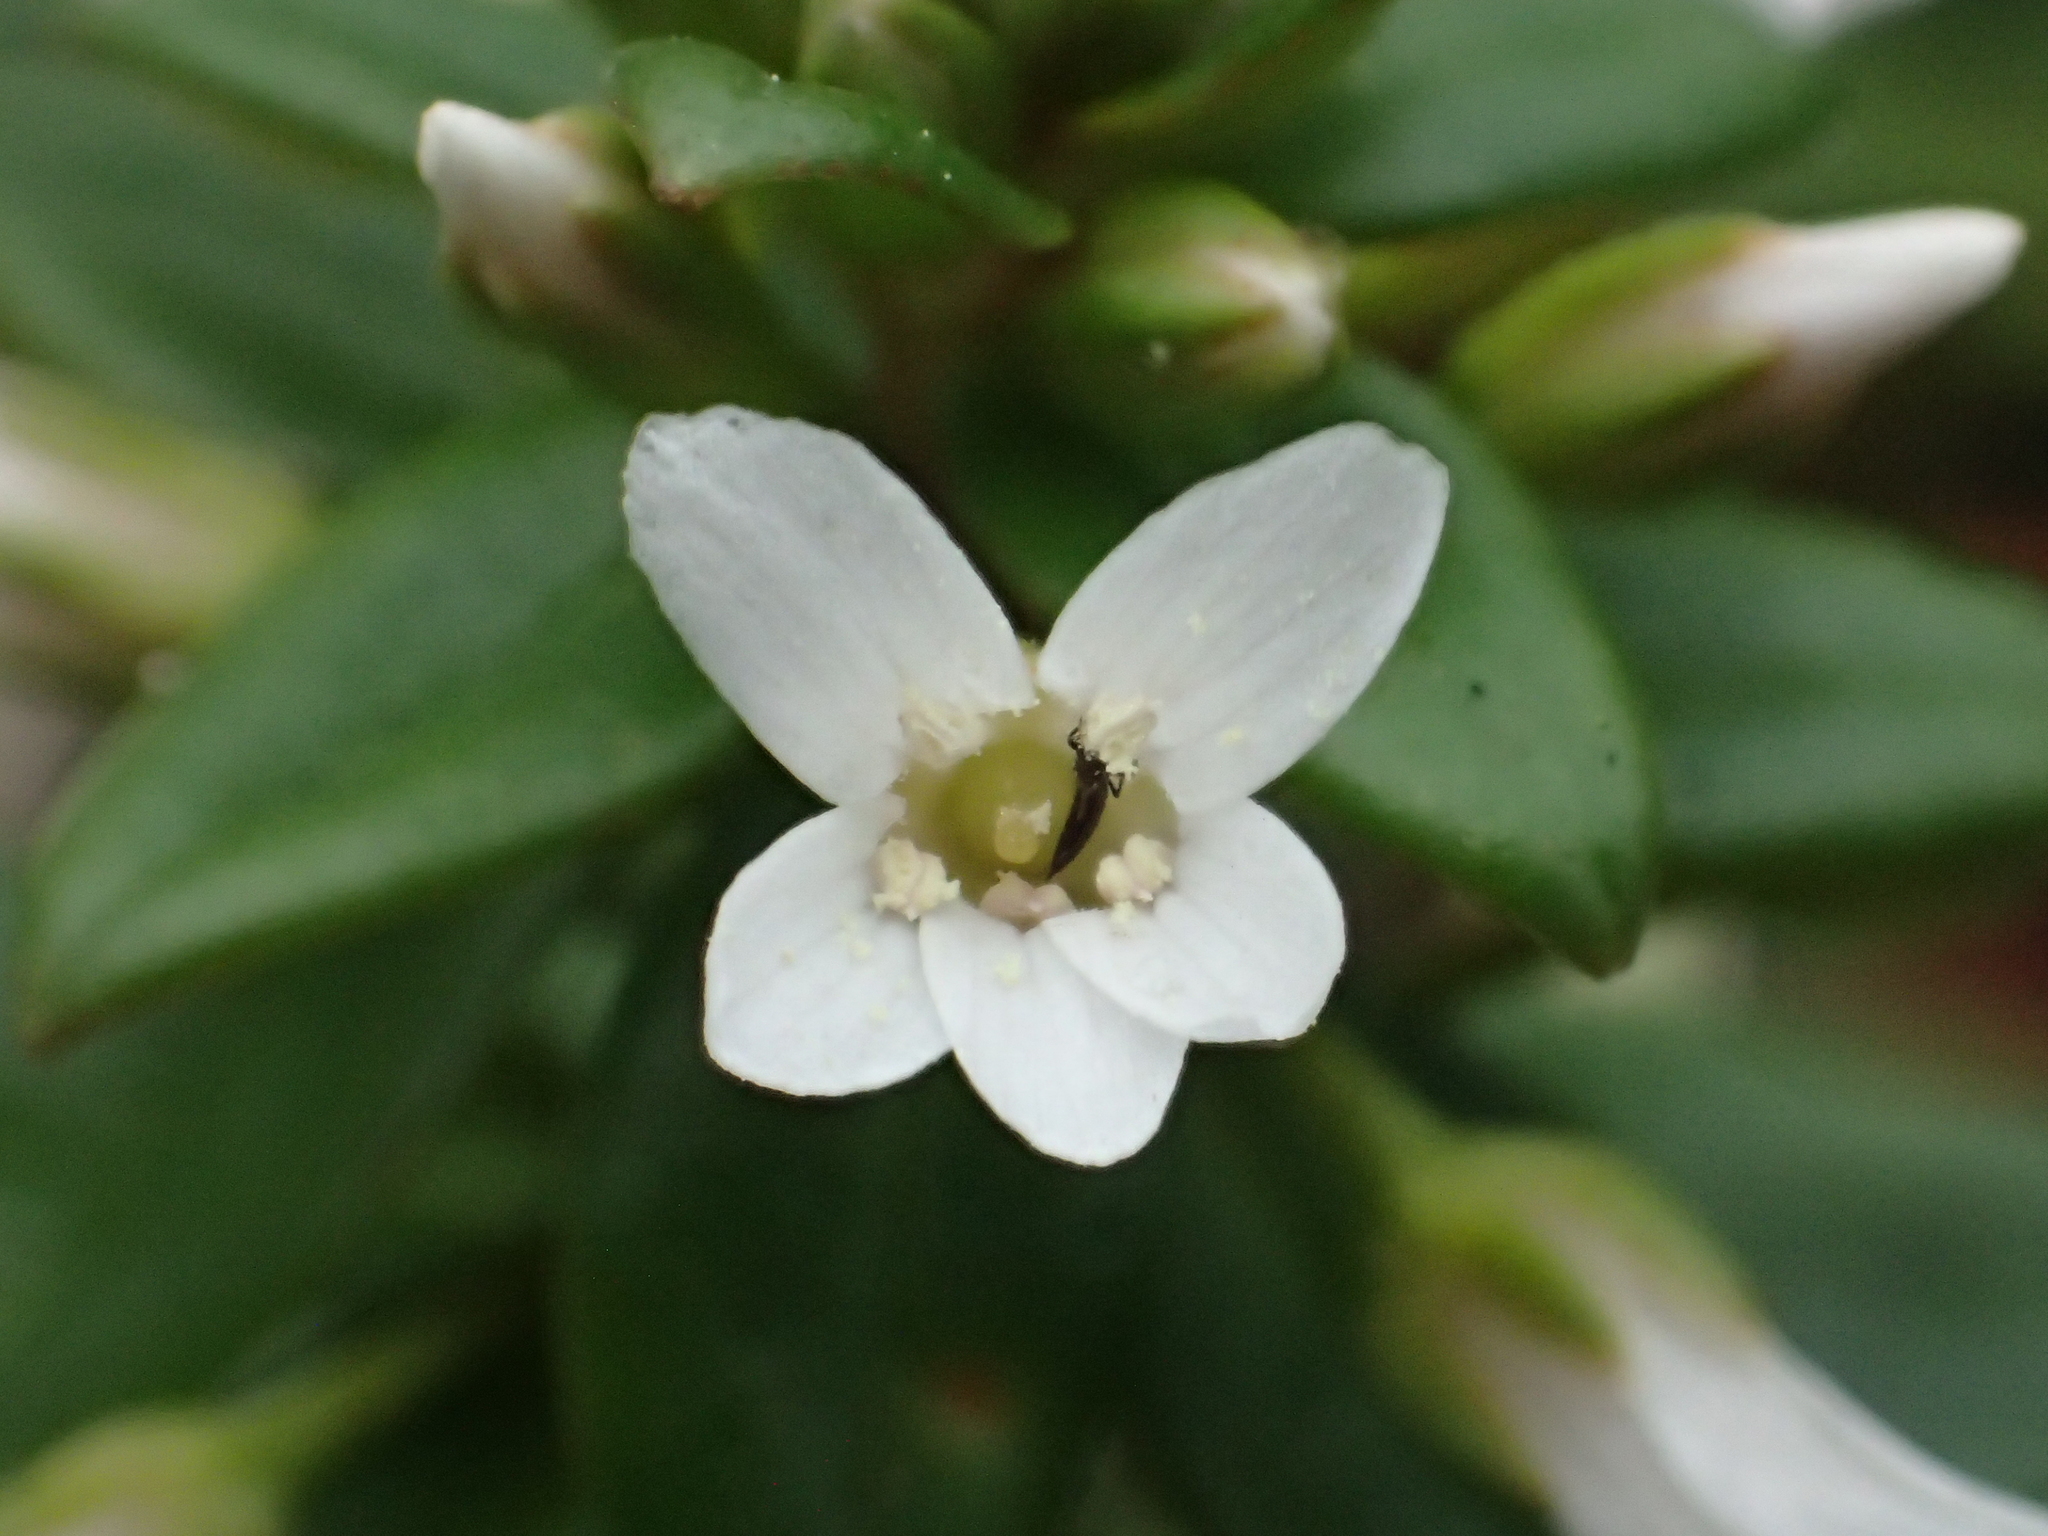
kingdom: Plantae
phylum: Tracheophyta
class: Magnoliopsida
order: Ericales
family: Primulaceae
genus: Lysimachia
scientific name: Lysimachia mauritiana
